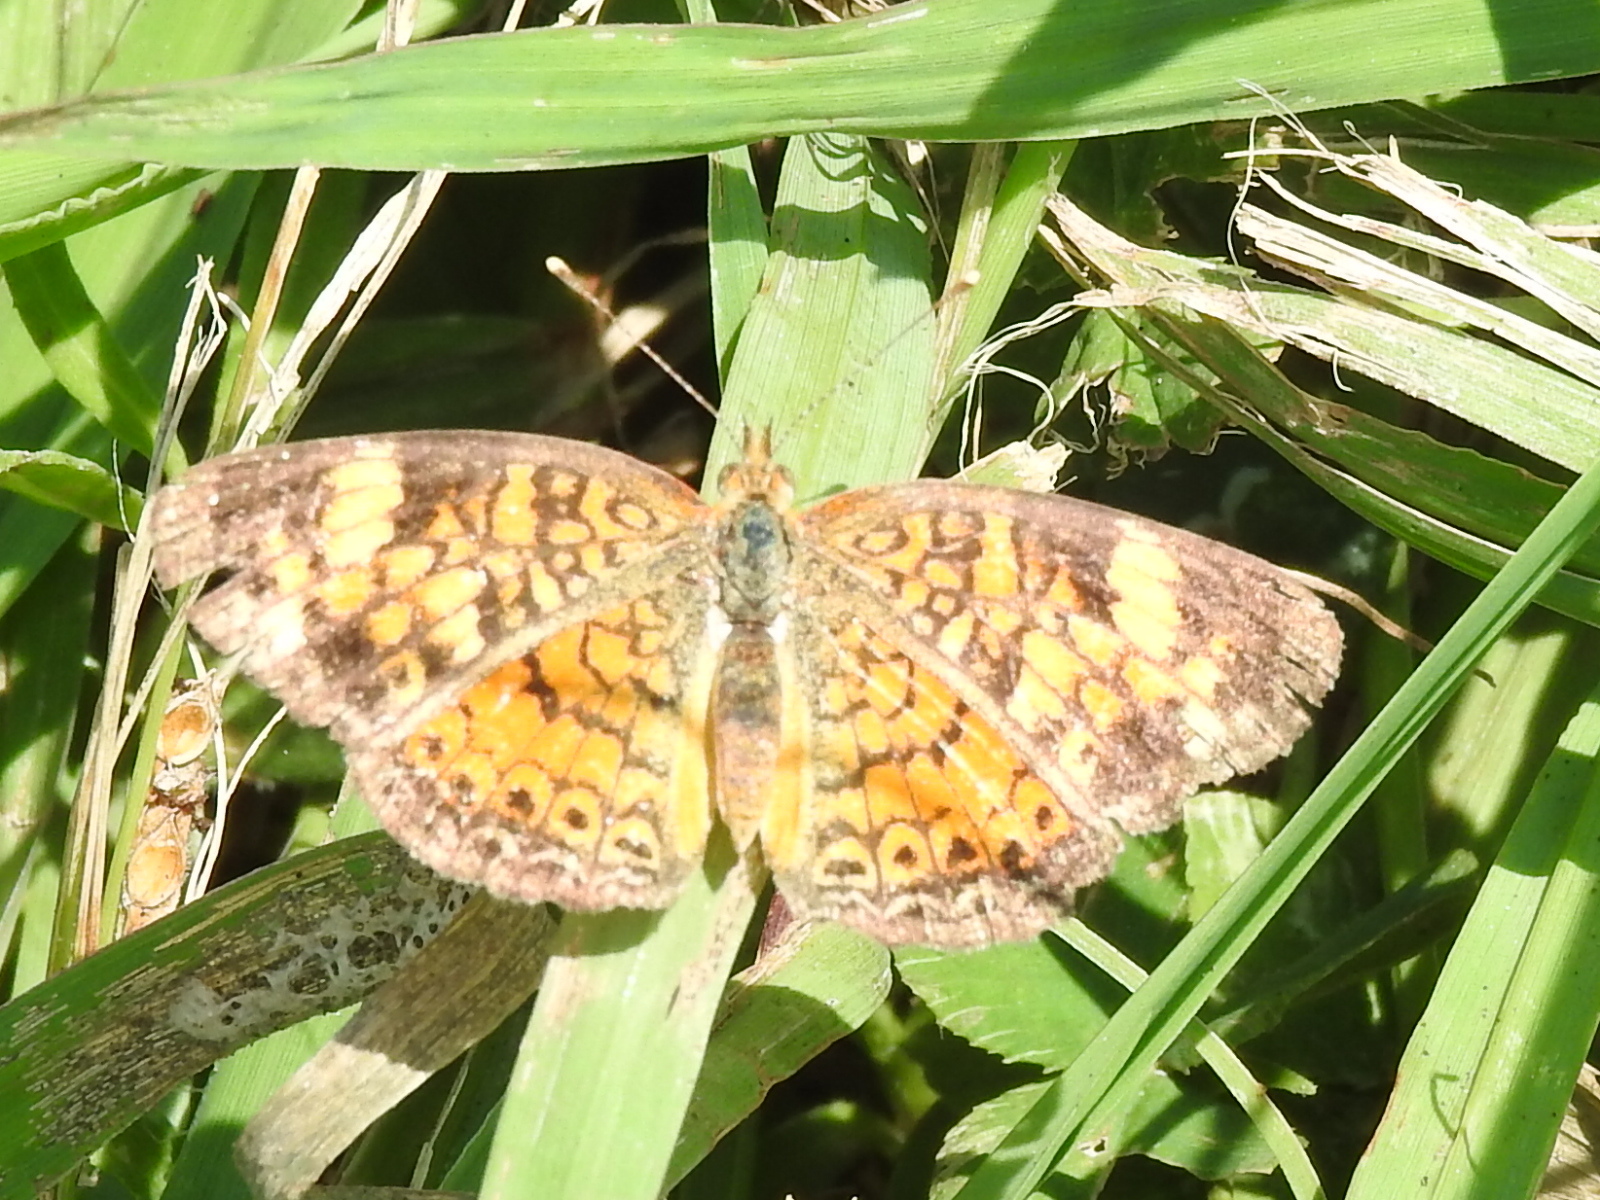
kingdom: Animalia
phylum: Arthropoda
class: Insecta
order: Lepidoptera
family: Nymphalidae
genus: Phyciodes
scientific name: Phyciodes tharos
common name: Pearl crescent
